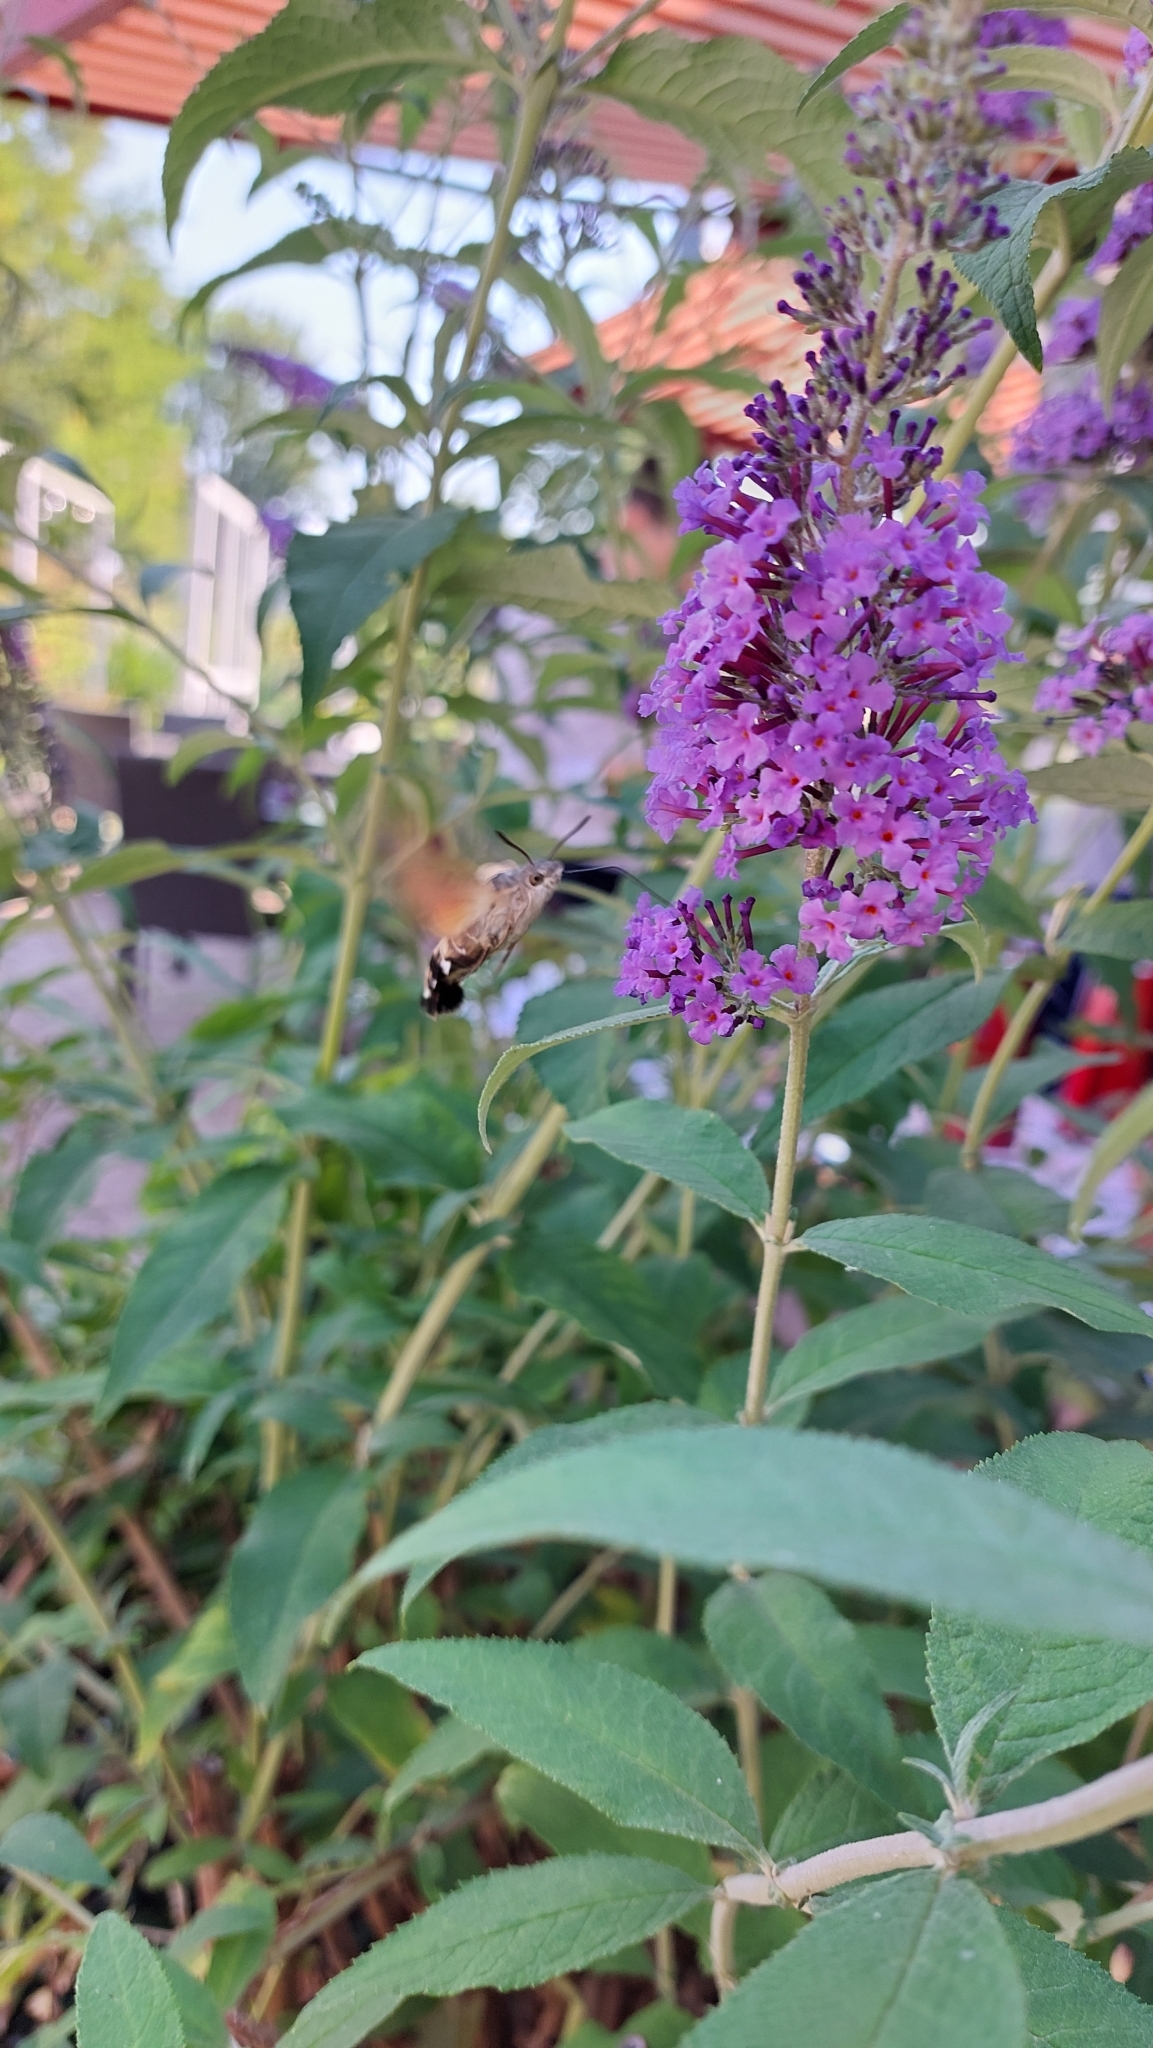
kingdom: Animalia
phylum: Arthropoda
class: Insecta
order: Lepidoptera
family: Sphingidae
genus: Macroglossum
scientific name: Macroglossum stellatarum
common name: Humming-bird hawk-moth
